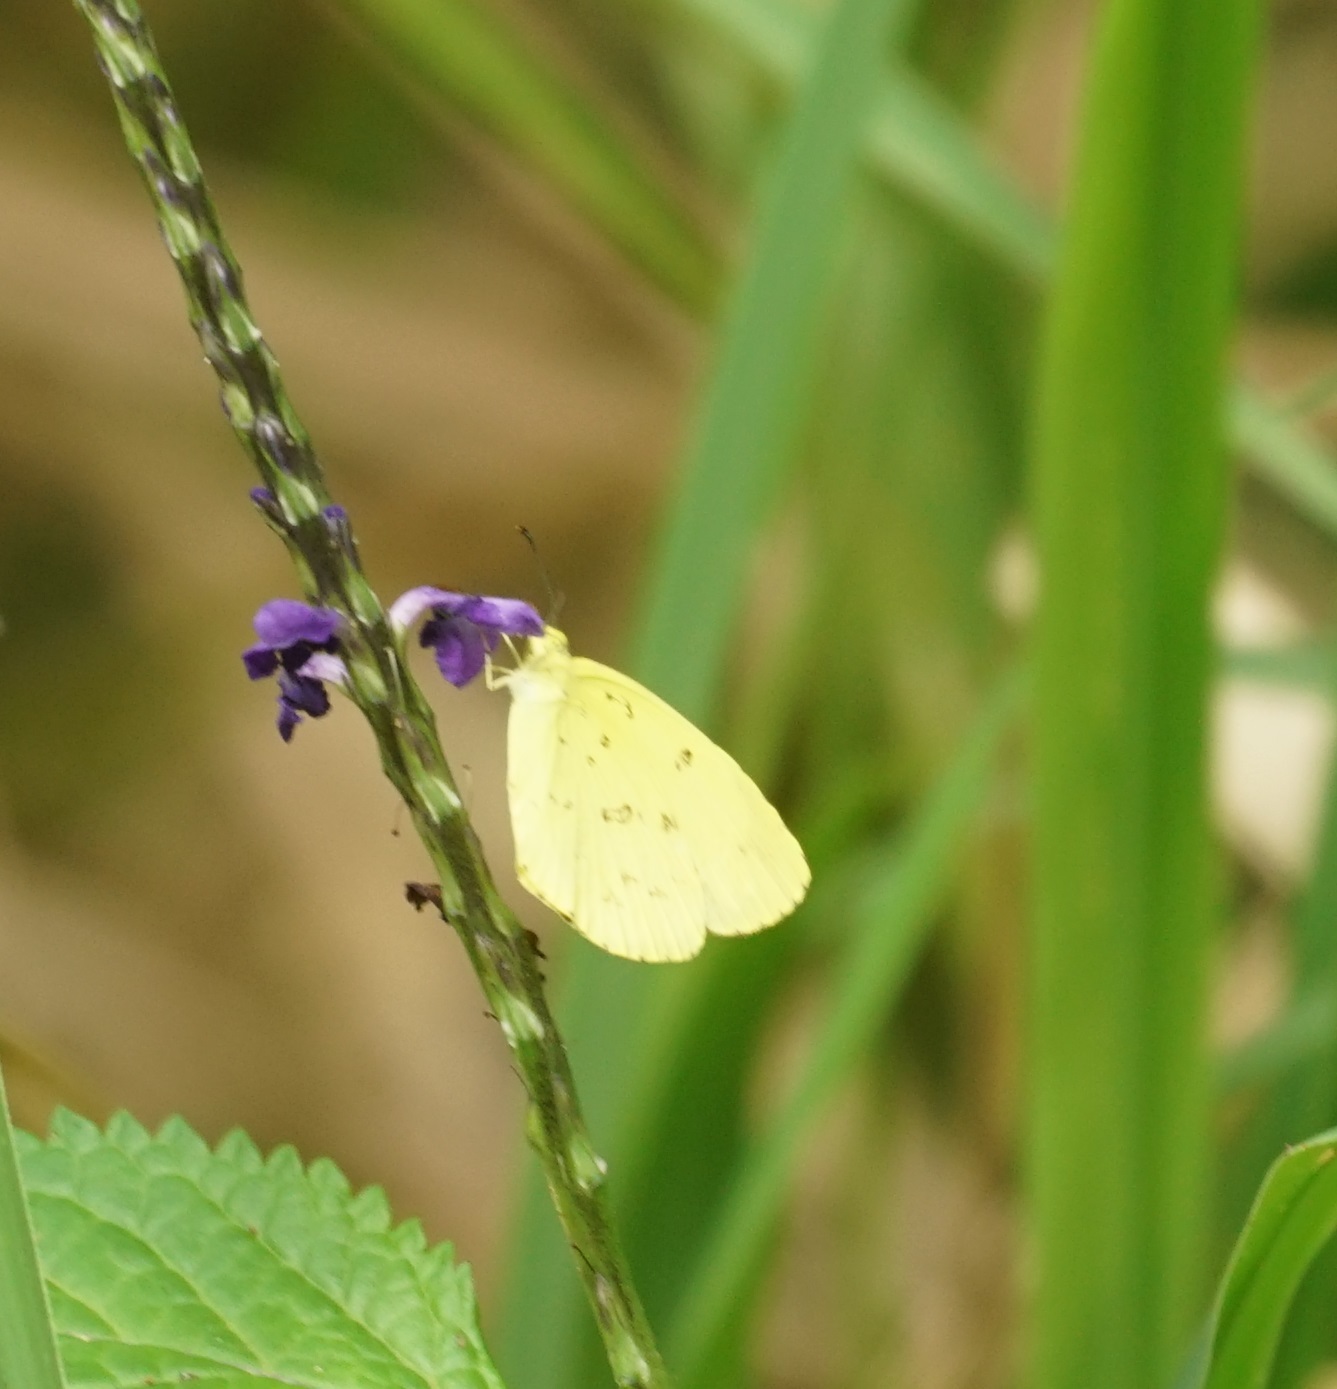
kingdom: Animalia
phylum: Arthropoda
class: Insecta
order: Lepidoptera
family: Pieridae
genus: Eurema
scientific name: Eurema
